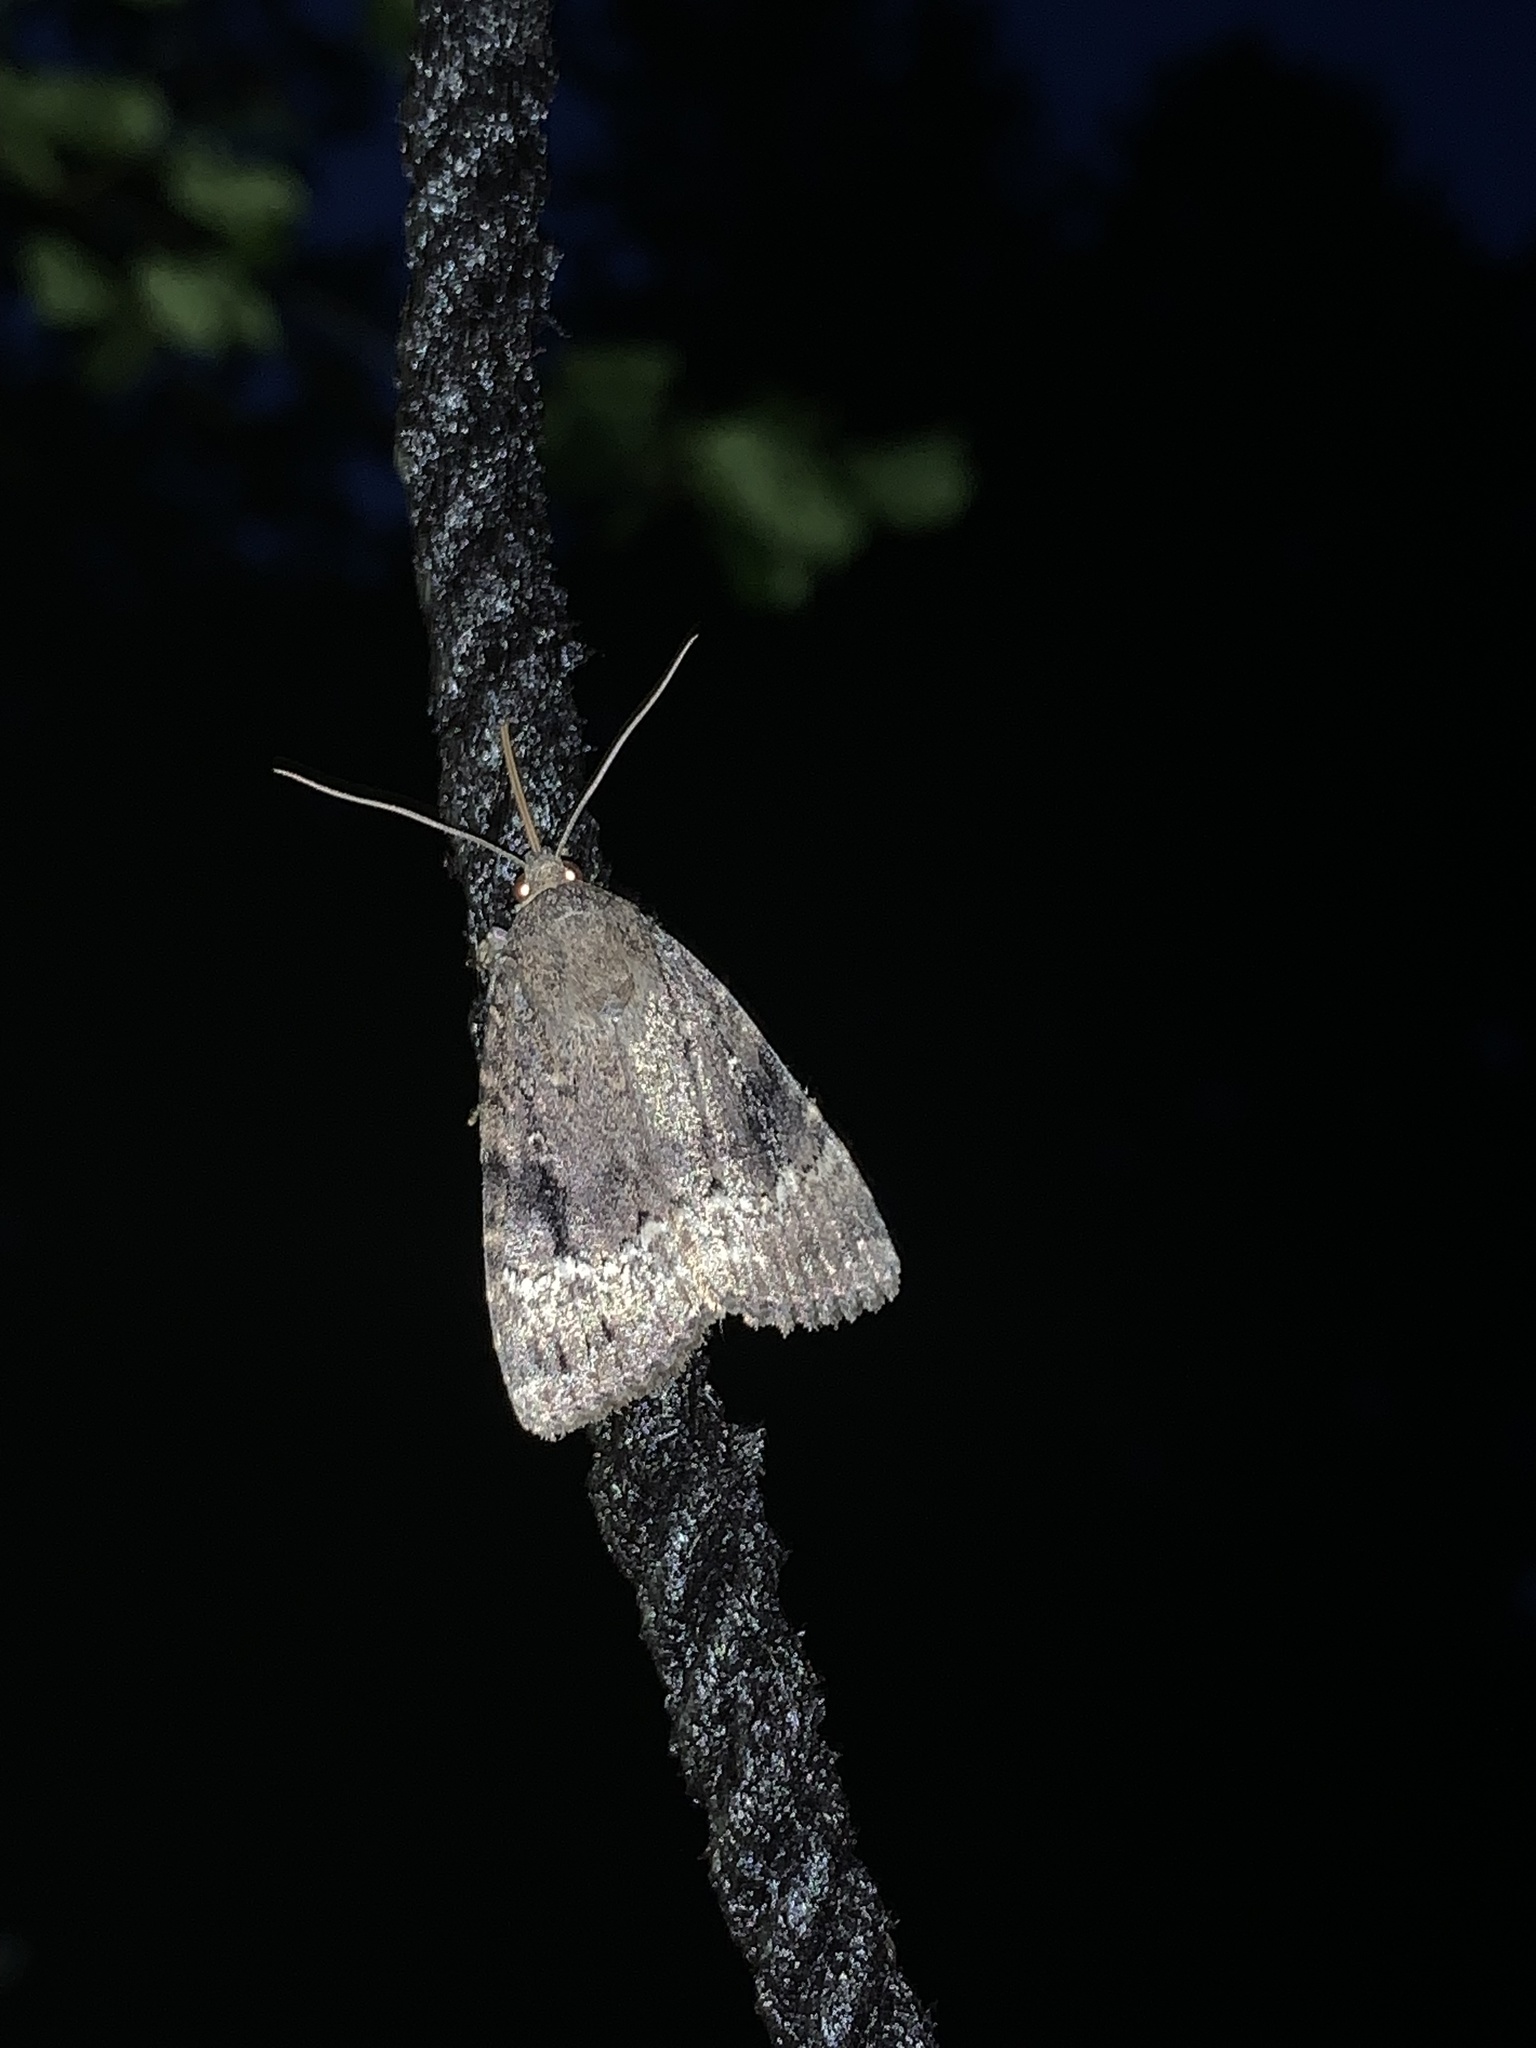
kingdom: Animalia
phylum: Arthropoda
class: Insecta
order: Lepidoptera
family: Noctuidae
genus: Amphipyra
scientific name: Amphipyra pyramidea
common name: Copper underwing
